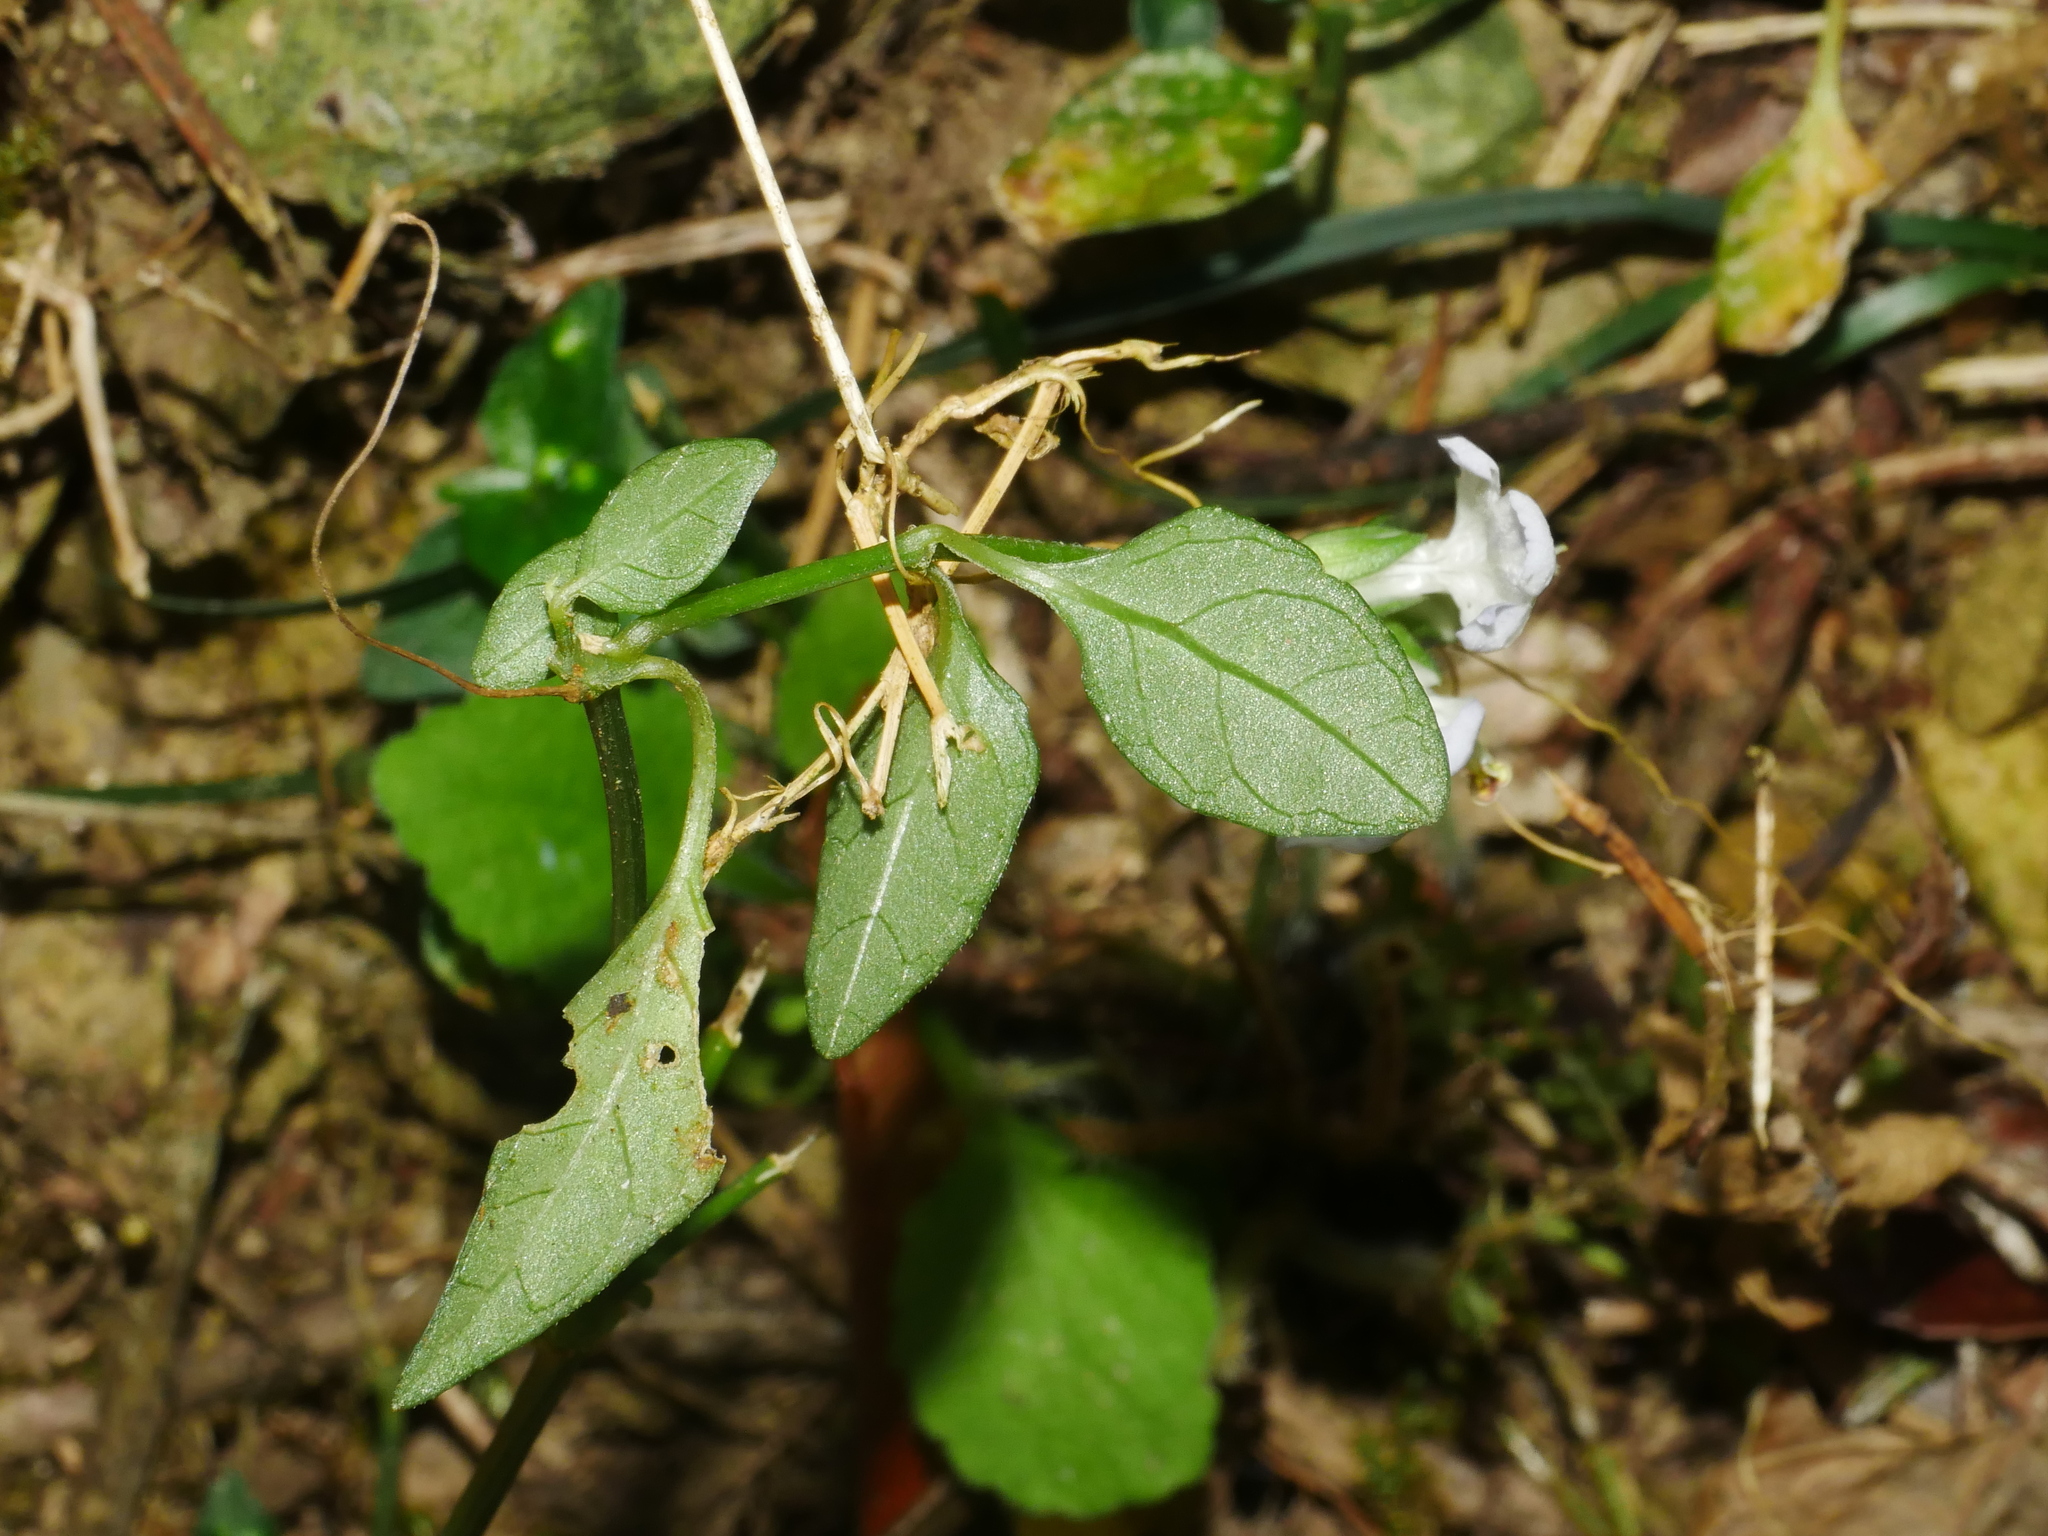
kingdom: Plantae
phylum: Tracheophyta
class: Magnoliopsida
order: Lamiales
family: Acanthaceae
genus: Rungia
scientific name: Rungia chinensis
